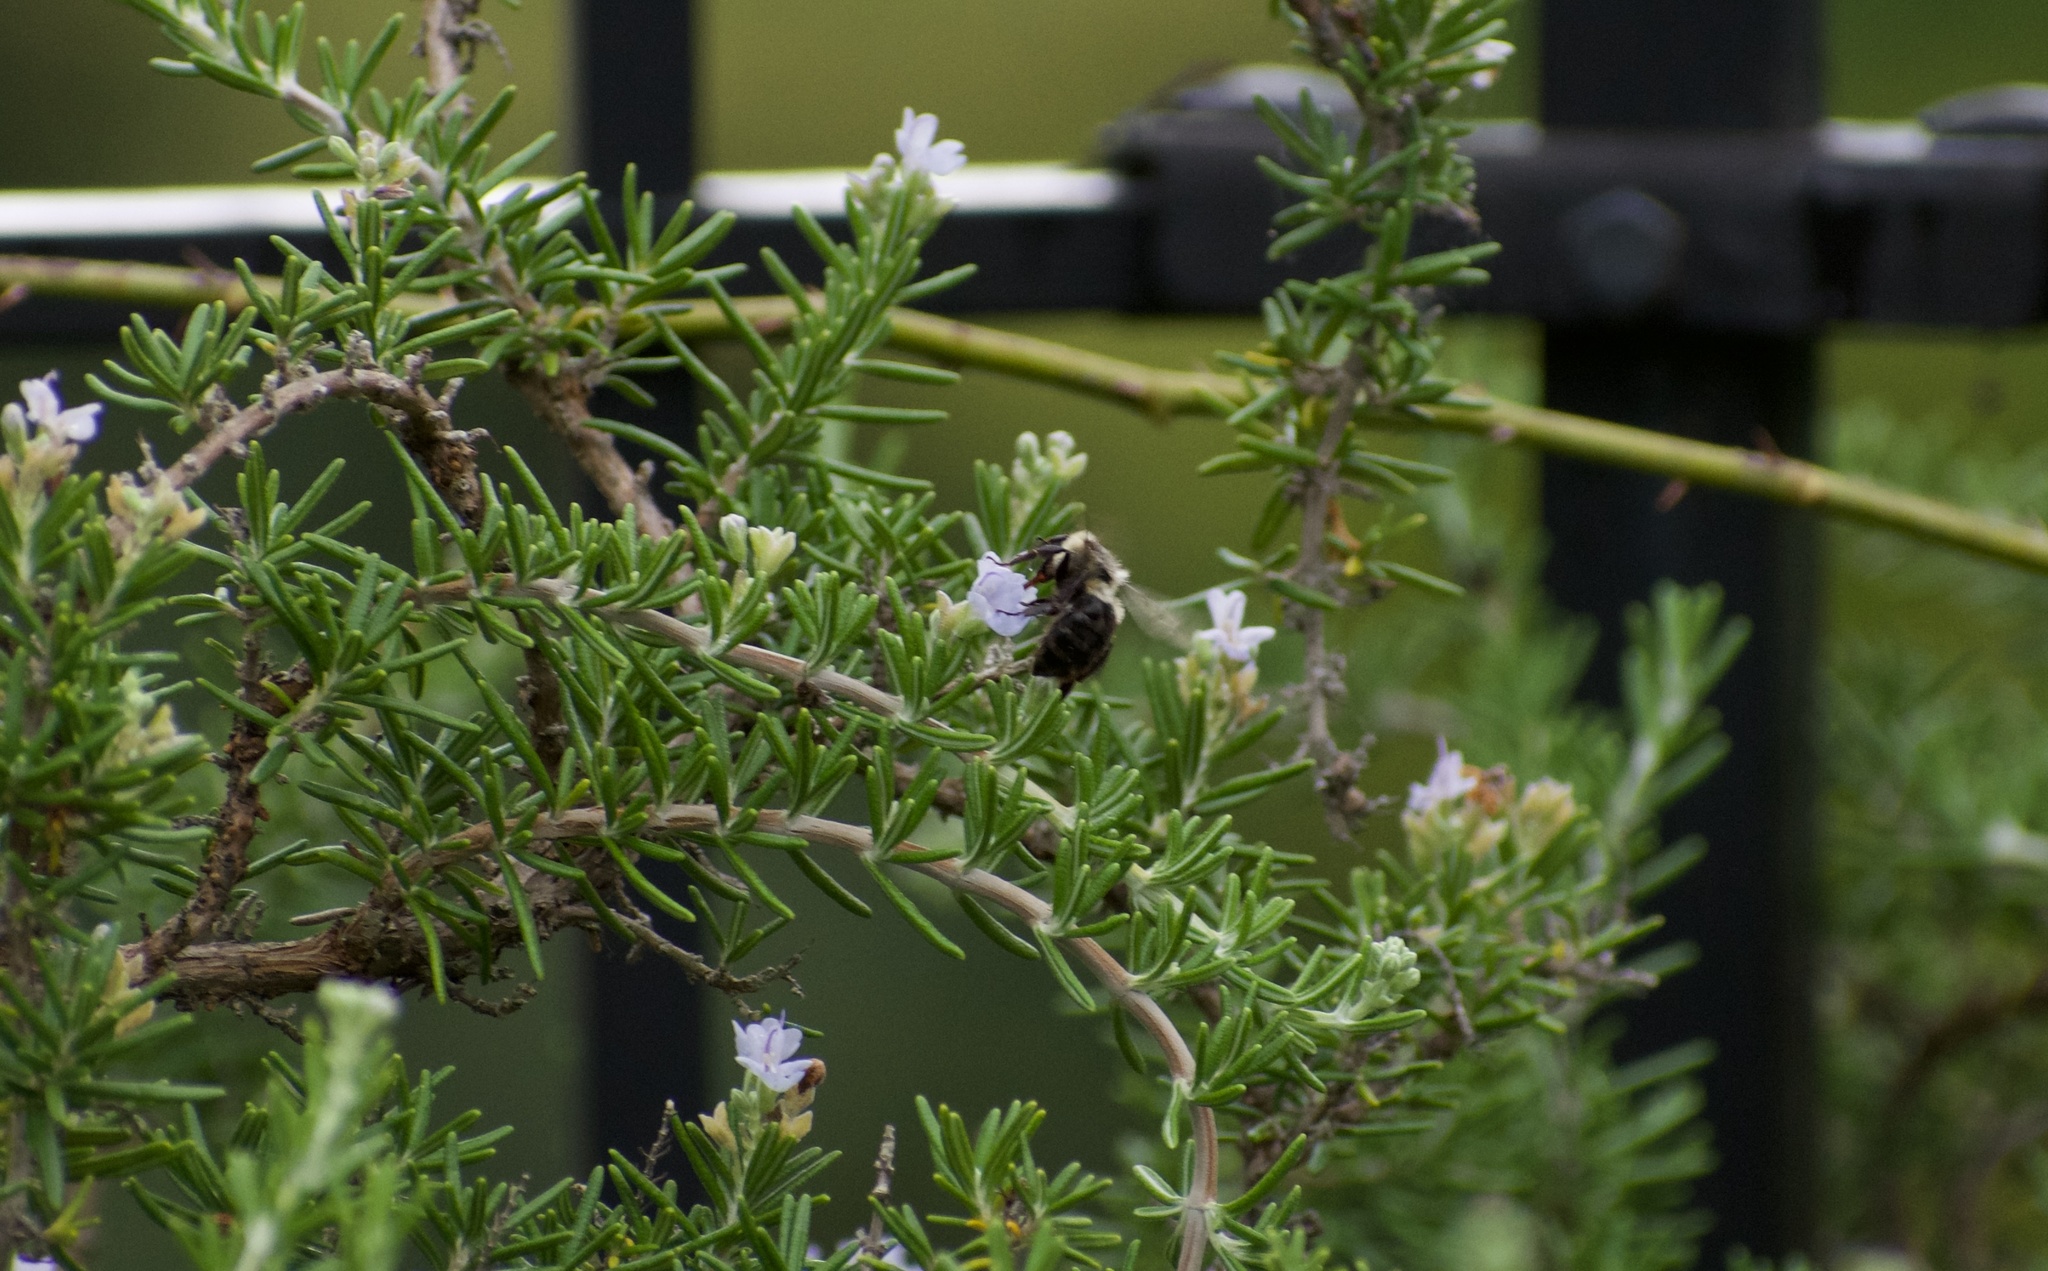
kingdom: Animalia
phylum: Arthropoda
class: Insecta
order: Hymenoptera
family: Apidae
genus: Bombus
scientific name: Bombus impatiens
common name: Common eastern bumble bee
